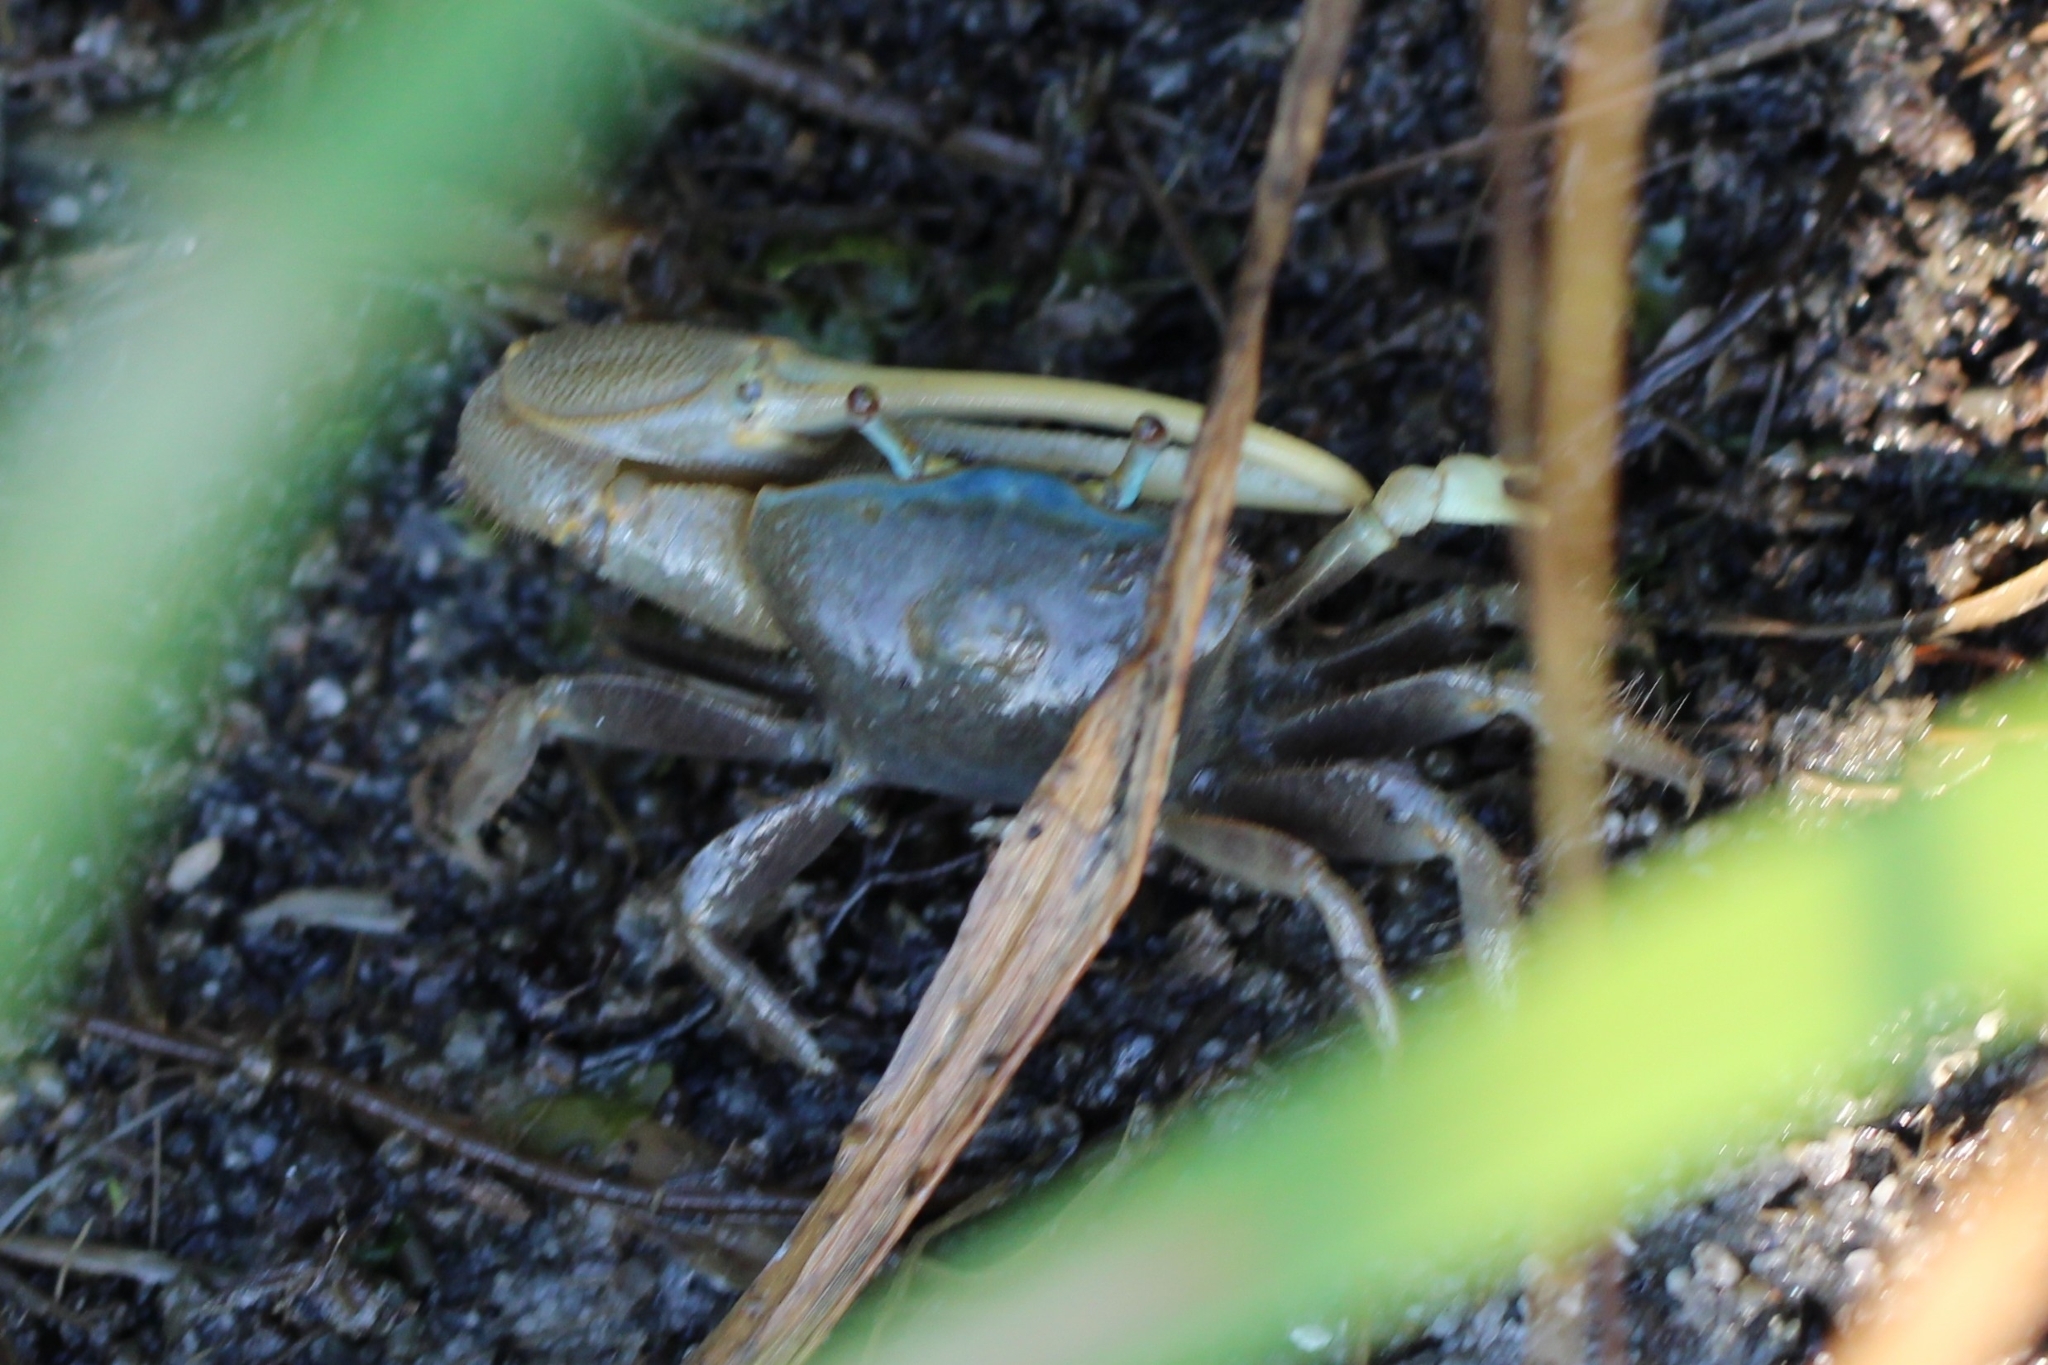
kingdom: Animalia
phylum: Arthropoda
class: Malacostraca
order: Decapoda
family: Ocypodidae
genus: Minuca
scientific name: Minuca pugnax
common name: Mud fiddler crab
